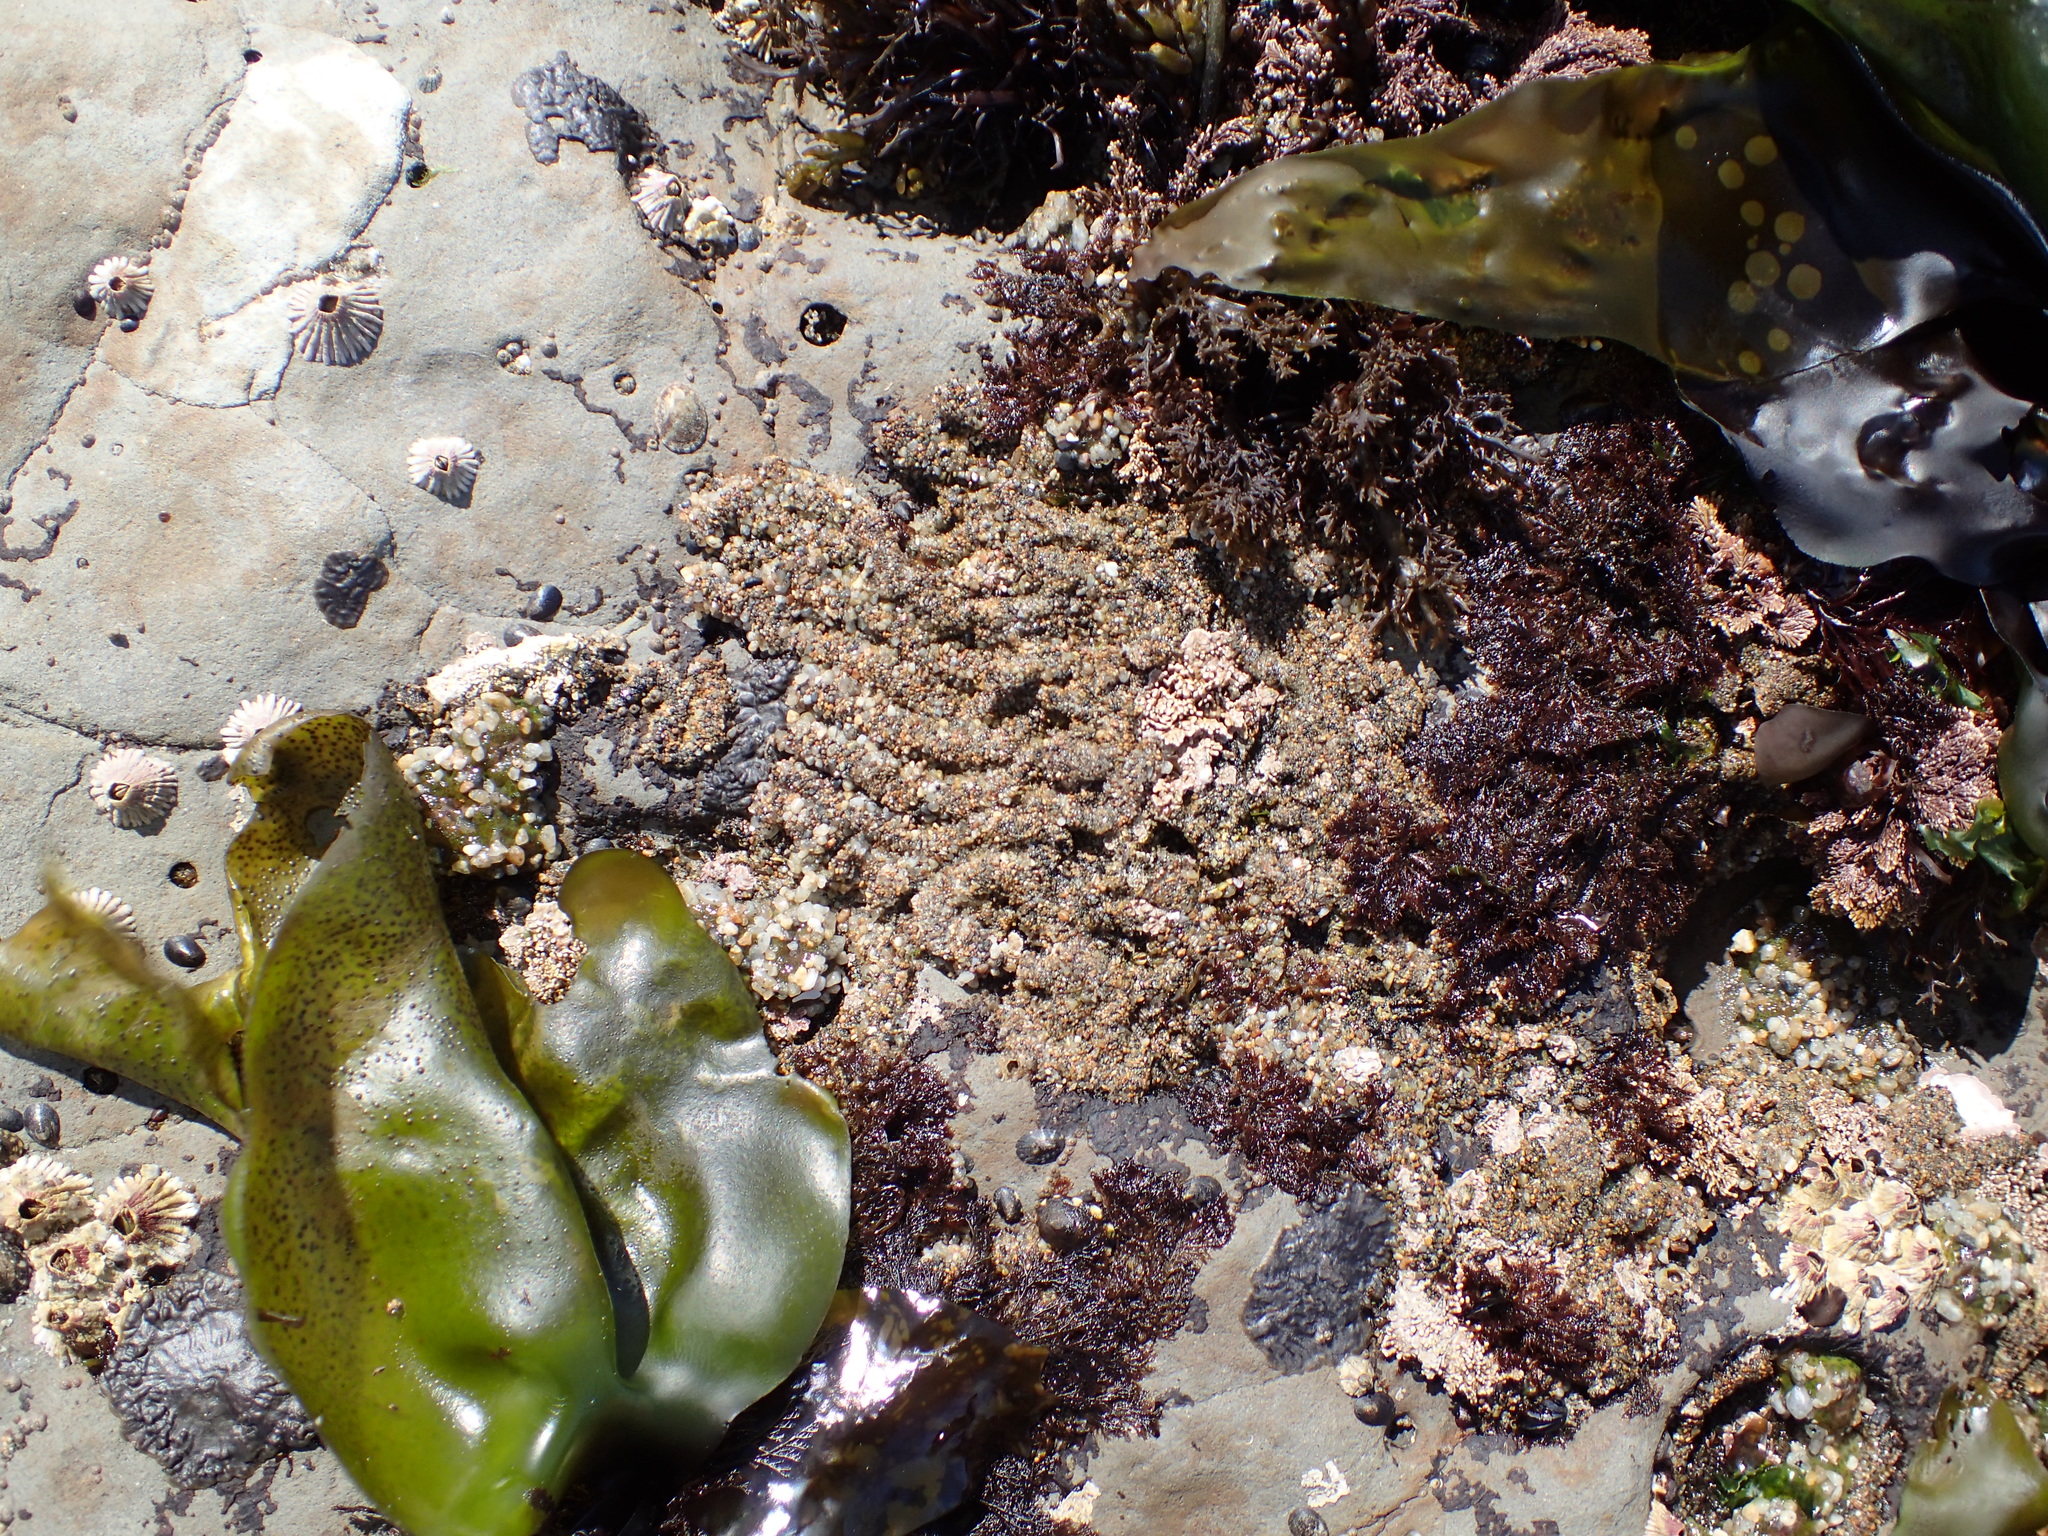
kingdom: Animalia
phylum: Annelida
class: Polychaeta
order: Sabellida
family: Sabellariidae
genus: Phragmatopoma
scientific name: Phragmatopoma californica
